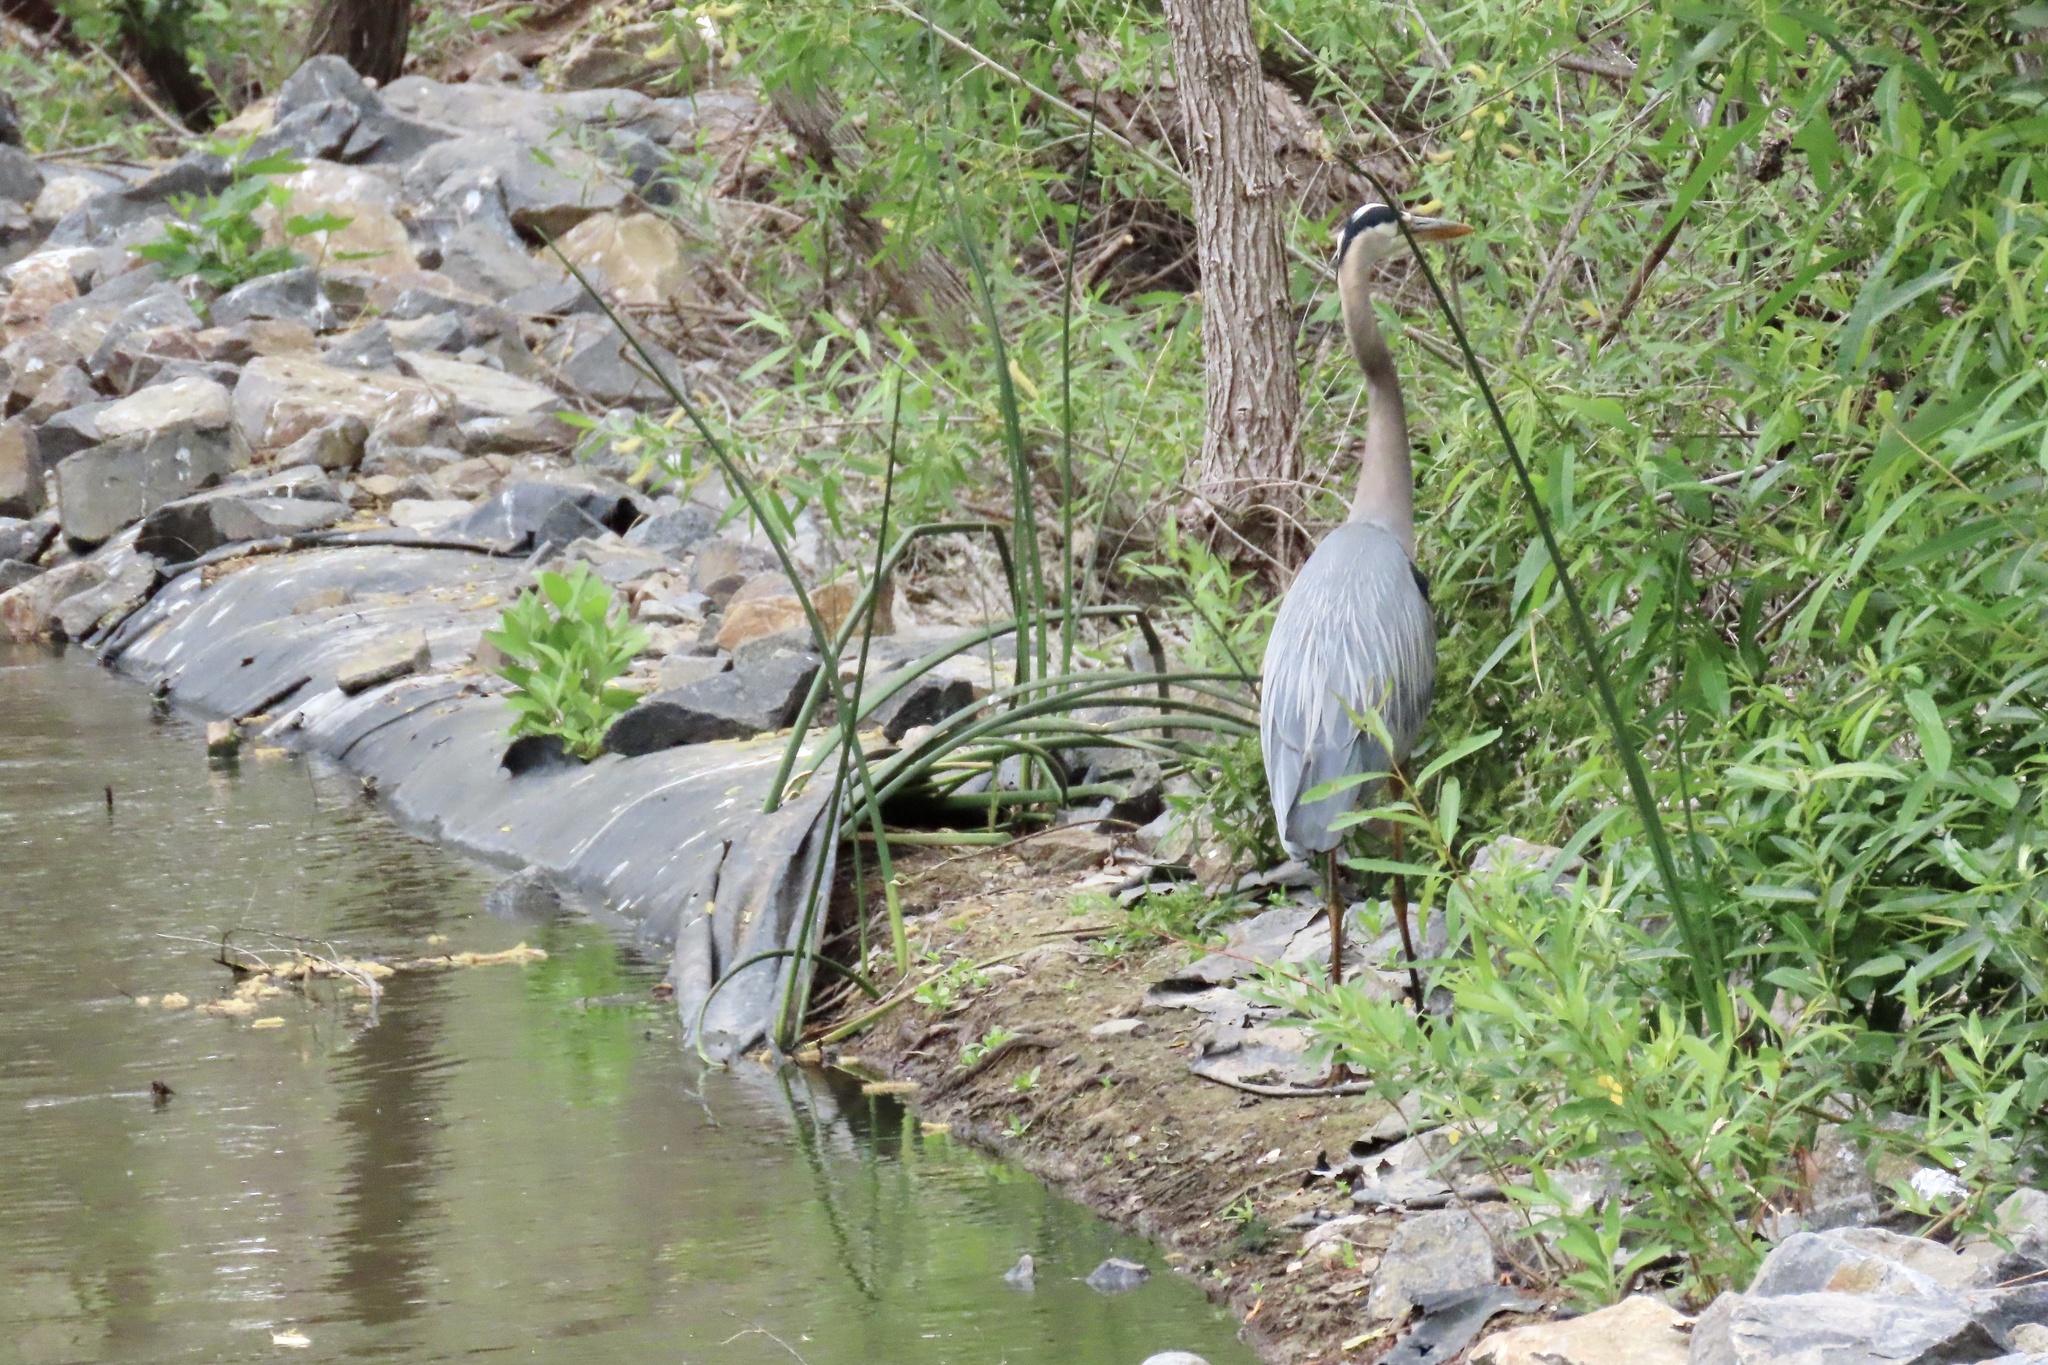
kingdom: Animalia
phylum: Chordata
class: Aves
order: Pelecaniformes
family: Ardeidae
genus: Ardea
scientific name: Ardea herodias
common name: Great blue heron
